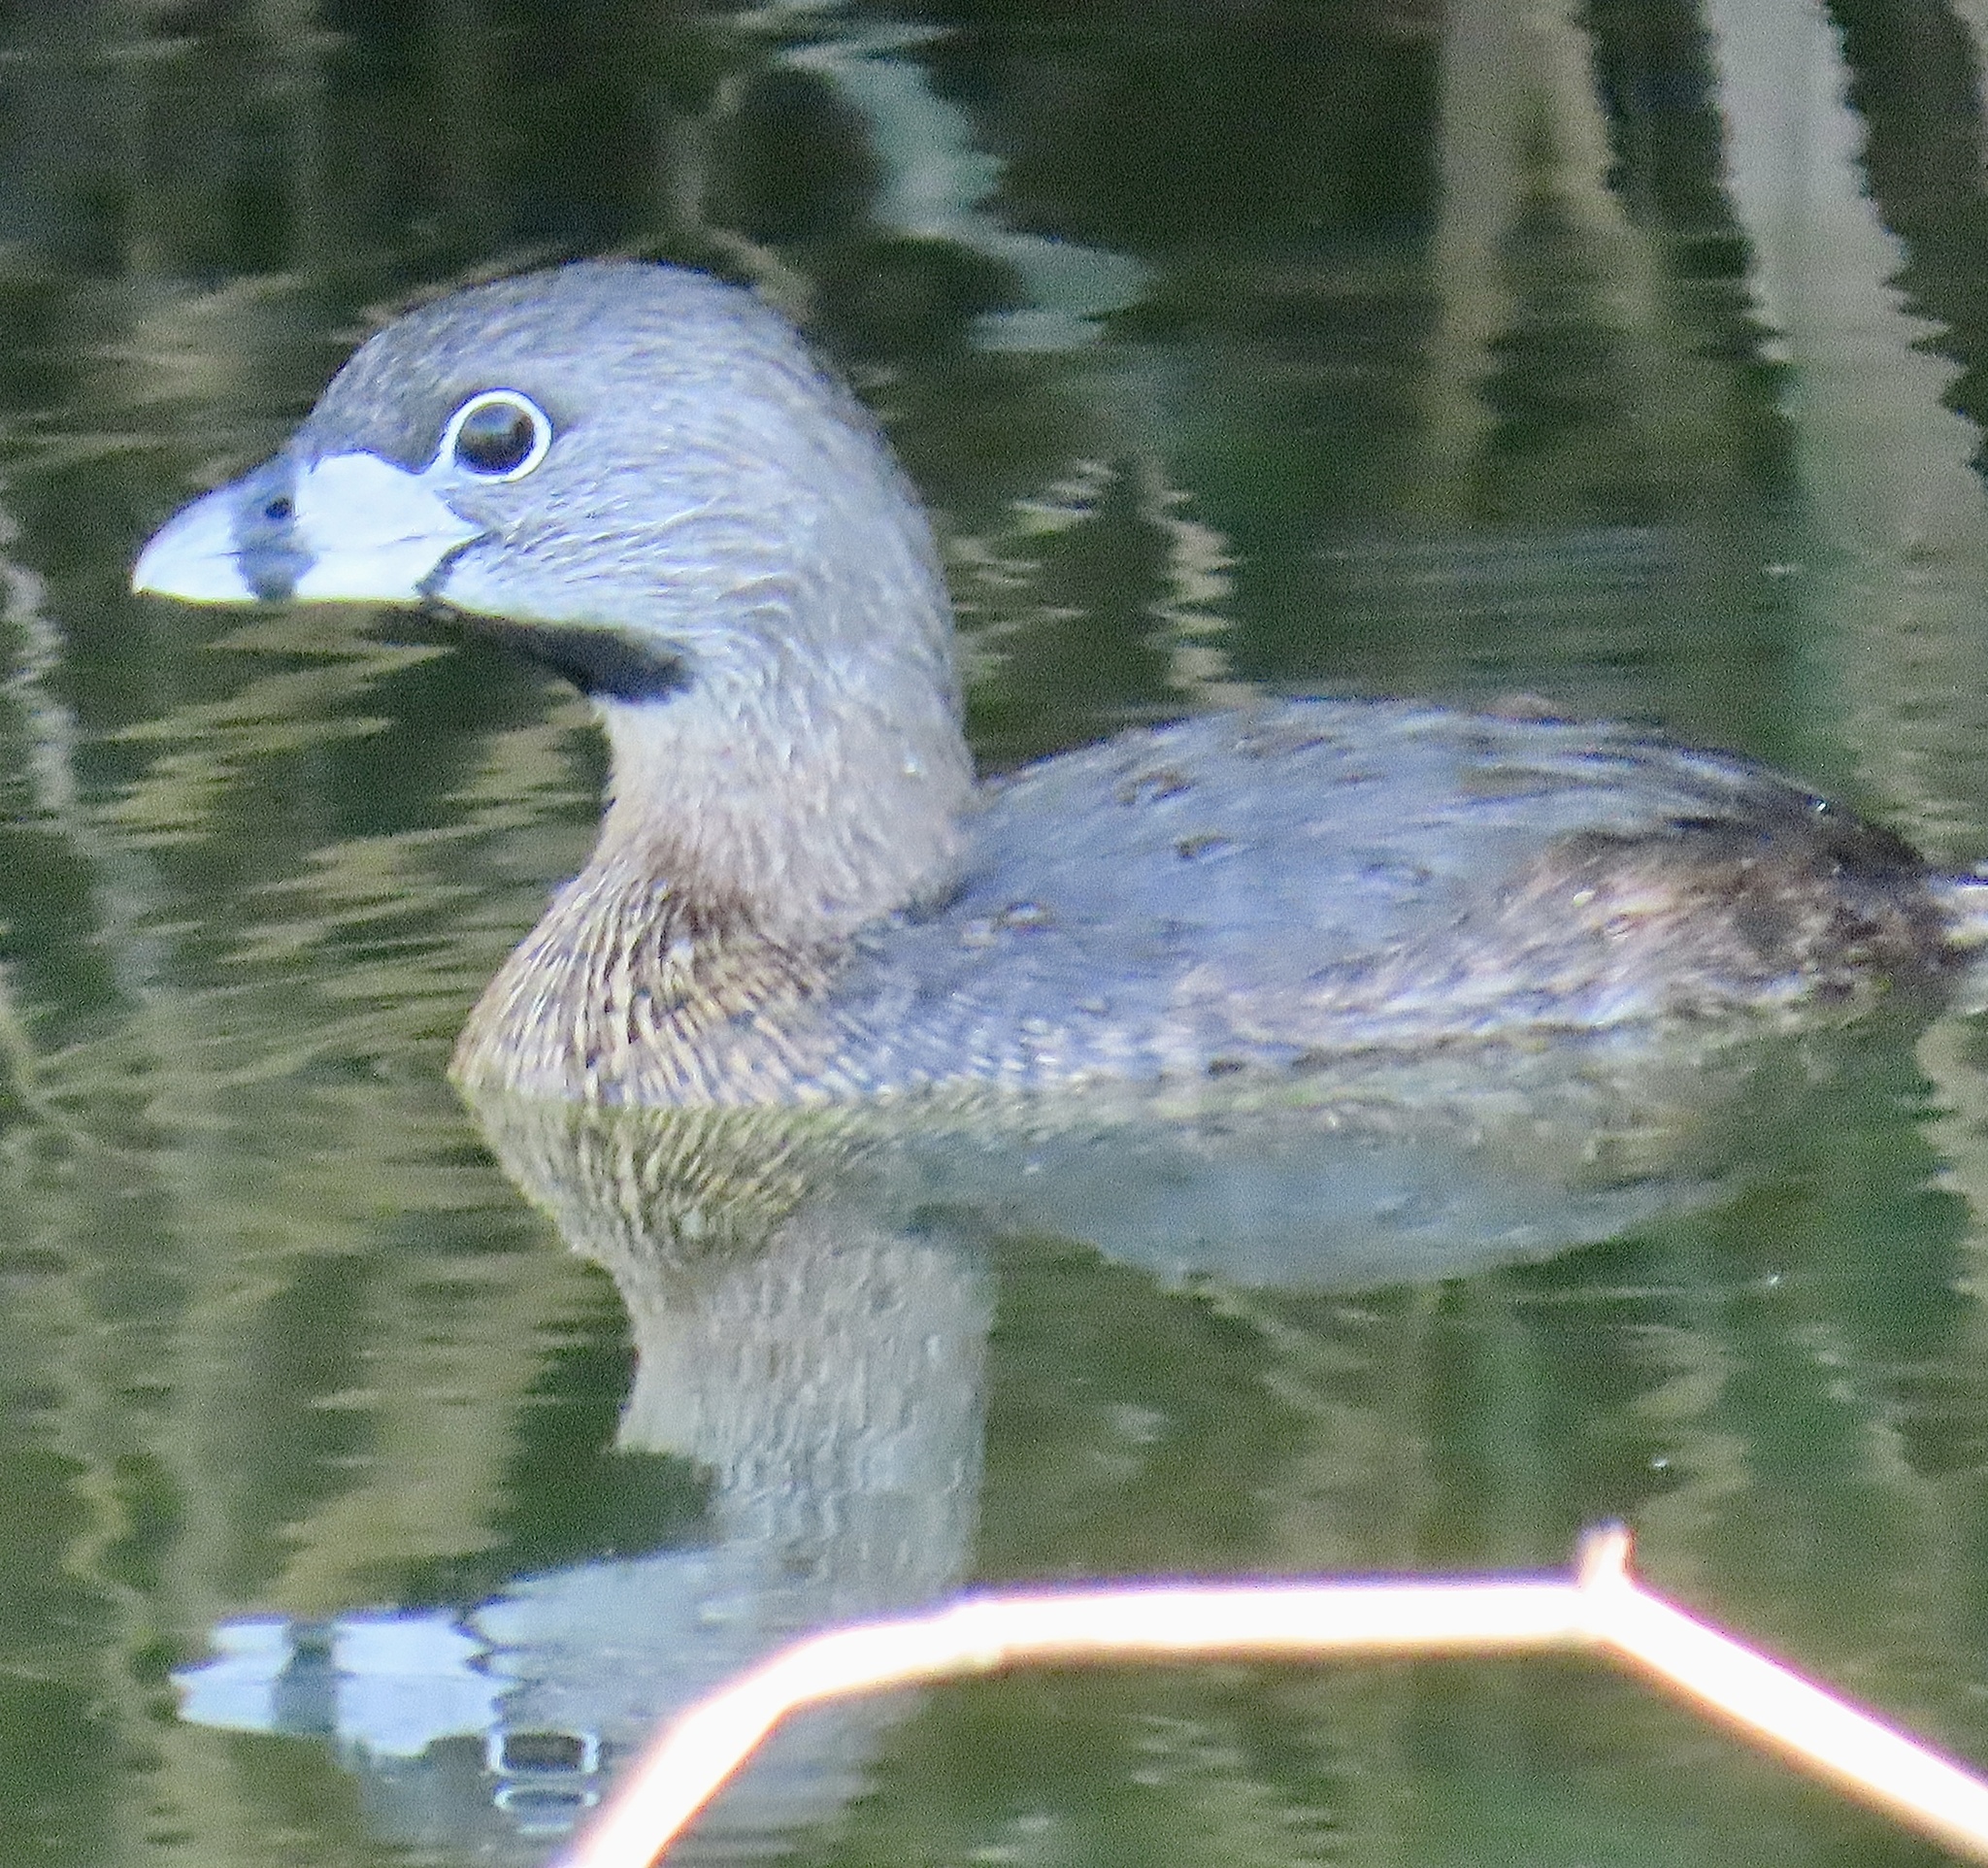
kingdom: Animalia
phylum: Chordata
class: Aves
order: Podicipediformes
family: Podicipedidae
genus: Podilymbus
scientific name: Podilymbus podiceps
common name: Pied-billed grebe
